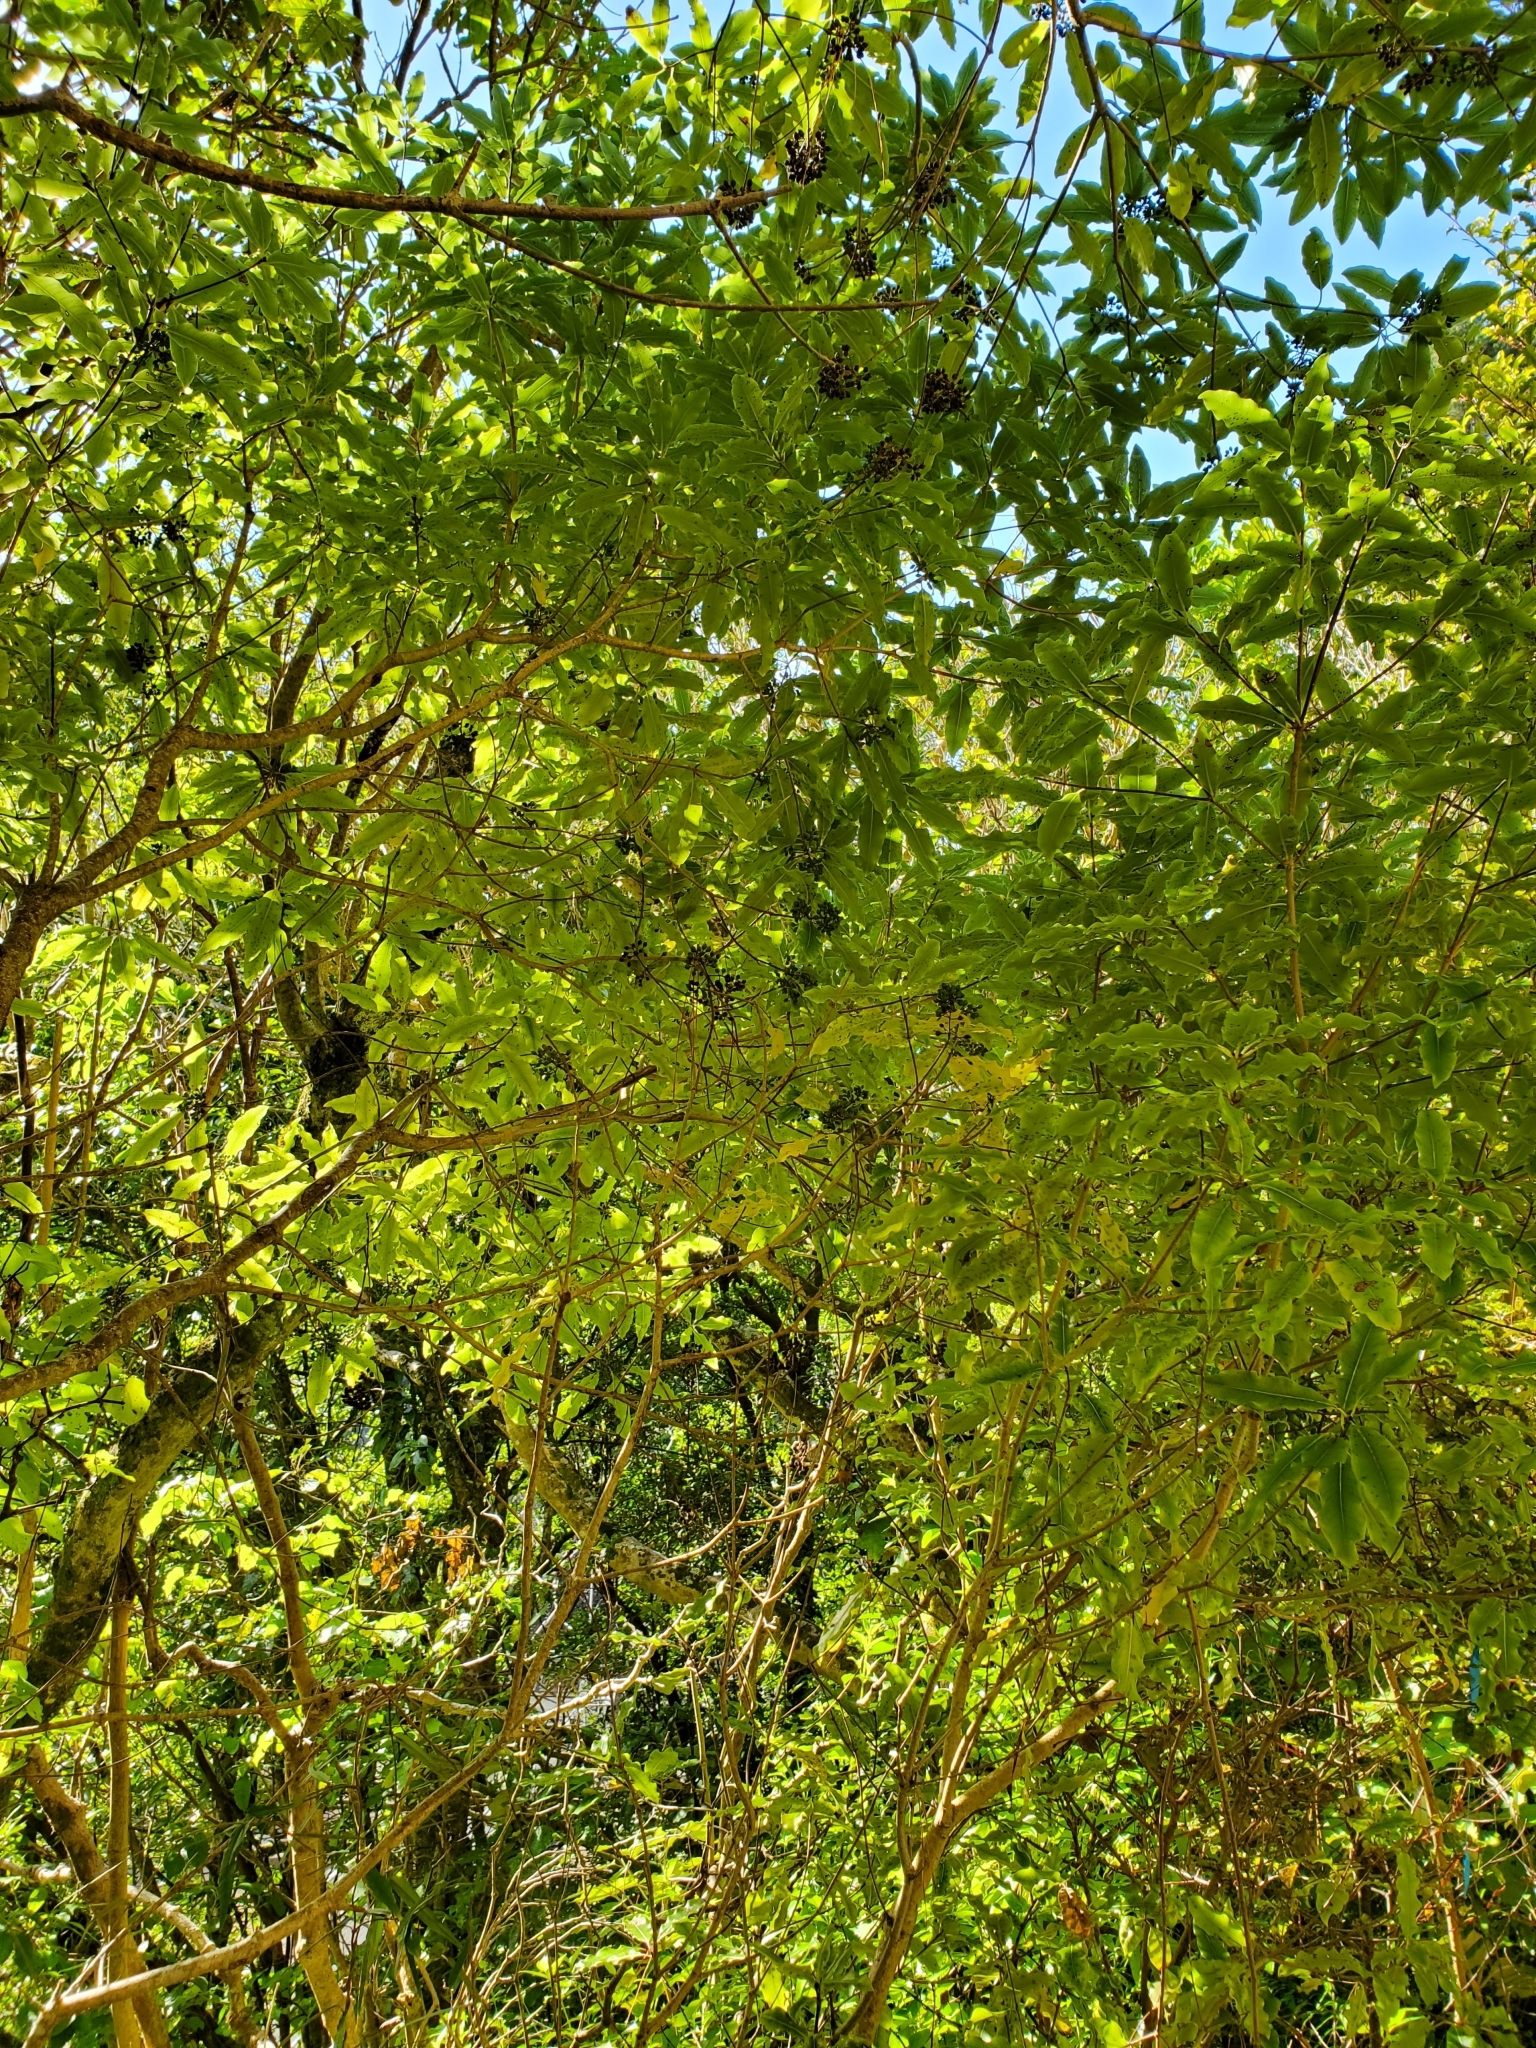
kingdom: Plantae
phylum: Tracheophyta
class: Magnoliopsida
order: Apiales
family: Pittosporaceae
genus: Pittosporum
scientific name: Pittosporum eugenioides
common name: Lemonwood
